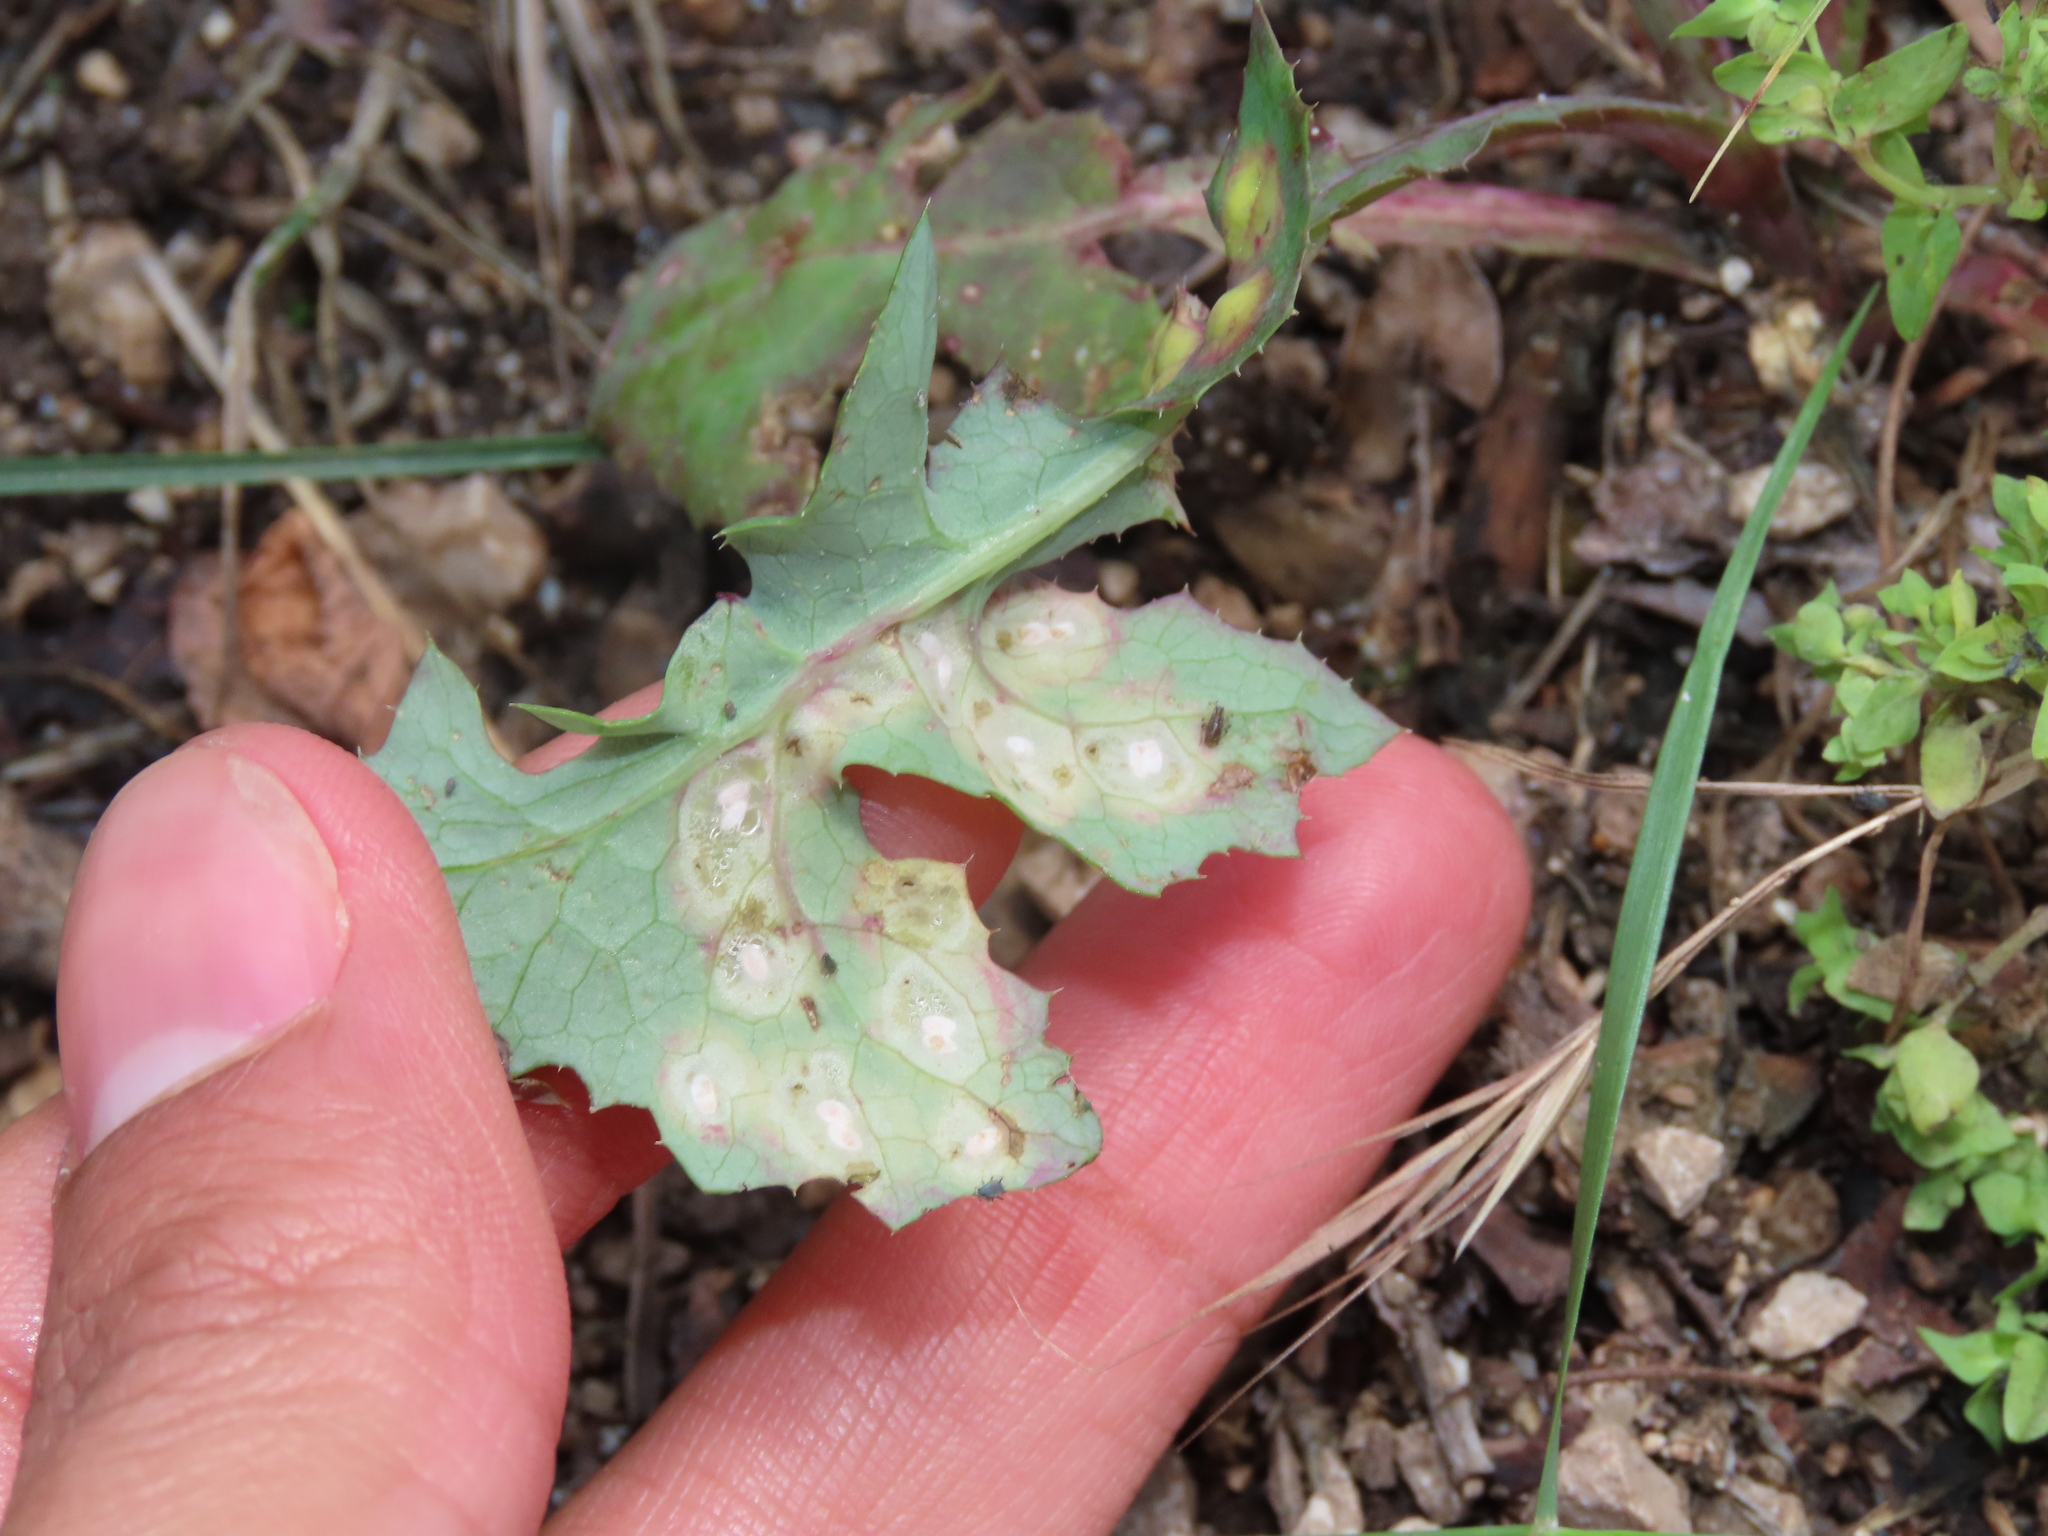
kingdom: Animalia
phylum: Arthropoda
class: Insecta
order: Diptera
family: Cecidomyiidae
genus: Cystiphora
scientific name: Cystiphora sonchi
